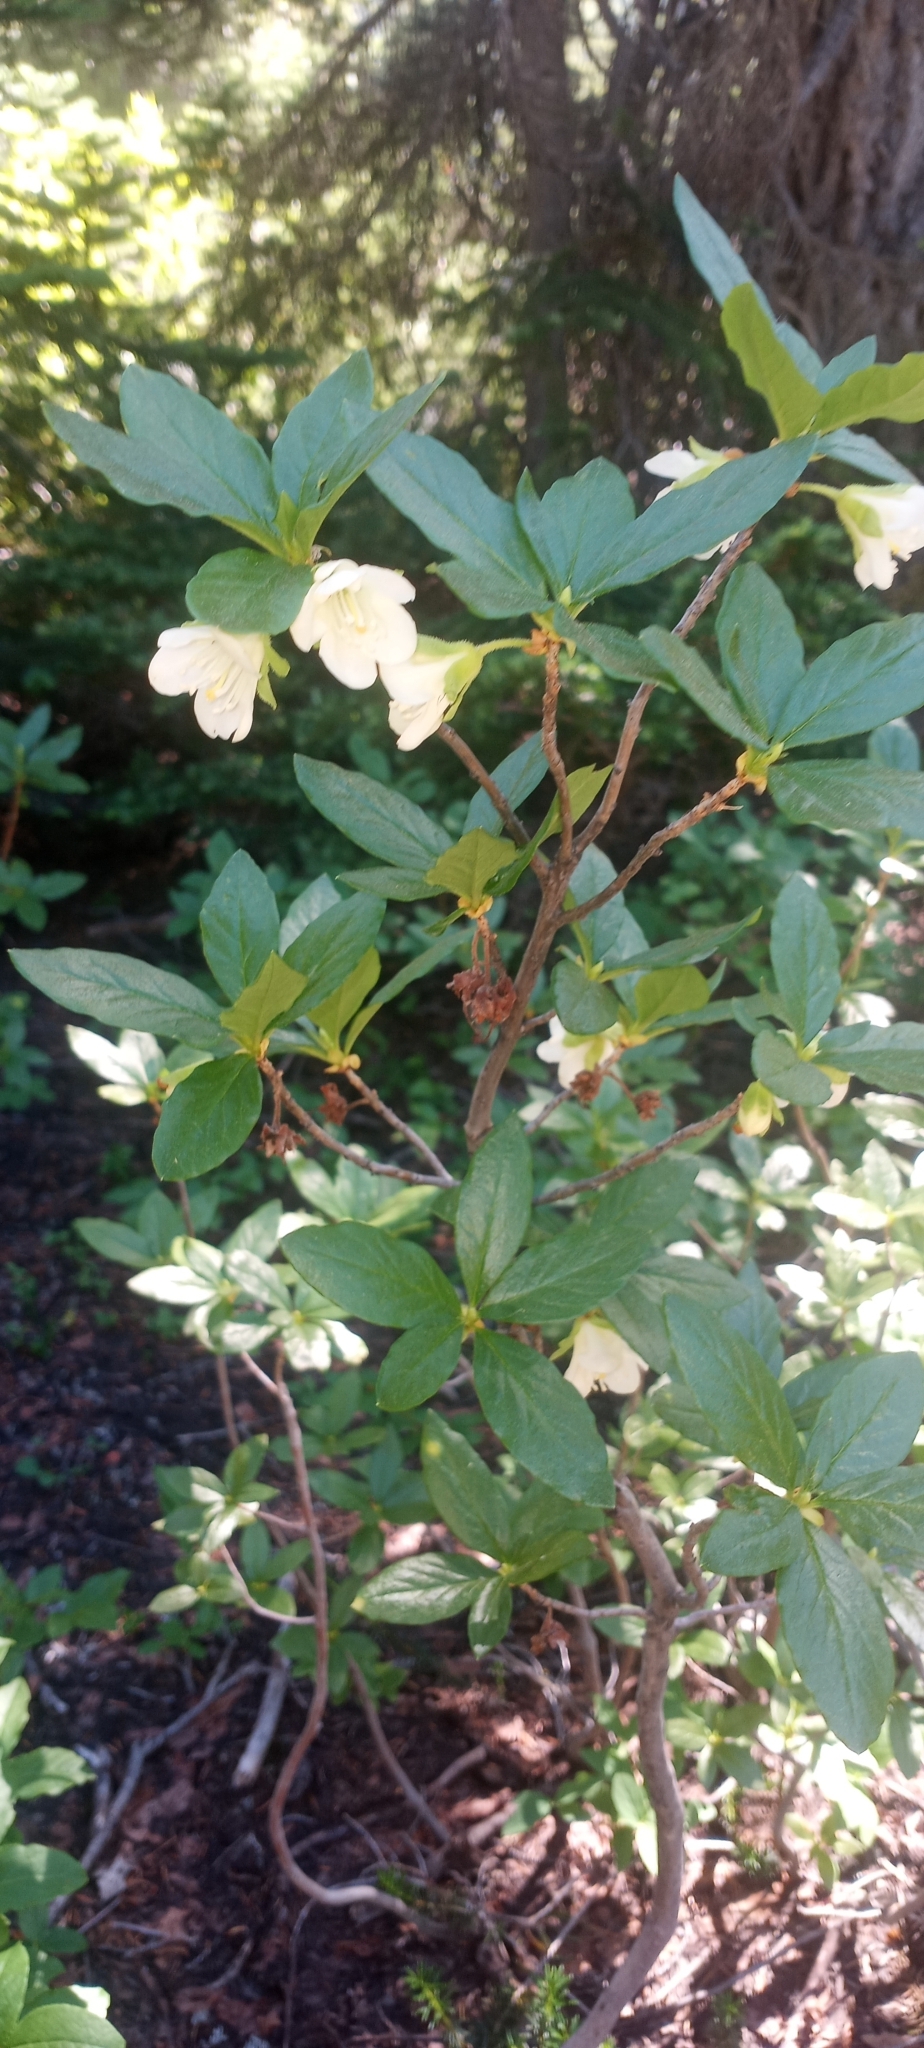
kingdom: Plantae
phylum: Tracheophyta
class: Magnoliopsida
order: Ericales
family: Ericaceae
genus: Rhododendron
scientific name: Rhododendron albiflorum
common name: White rhododendron
